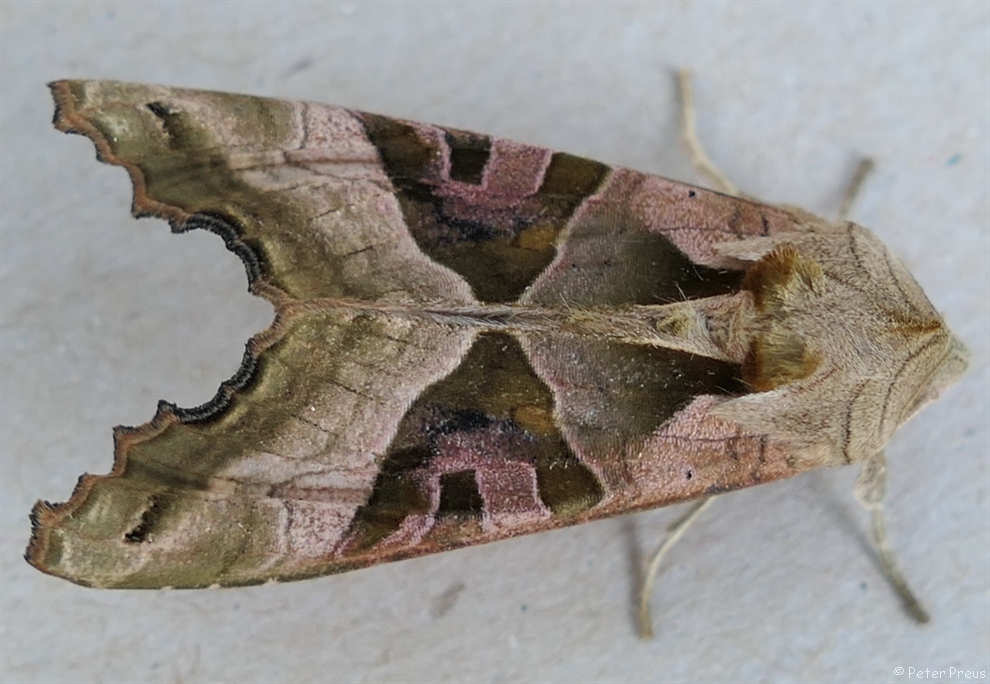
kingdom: Animalia
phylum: Arthropoda
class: Insecta
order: Lepidoptera
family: Noctuidae
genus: Phlogophora
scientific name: Phlogophora meticulosa
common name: Angle shades
